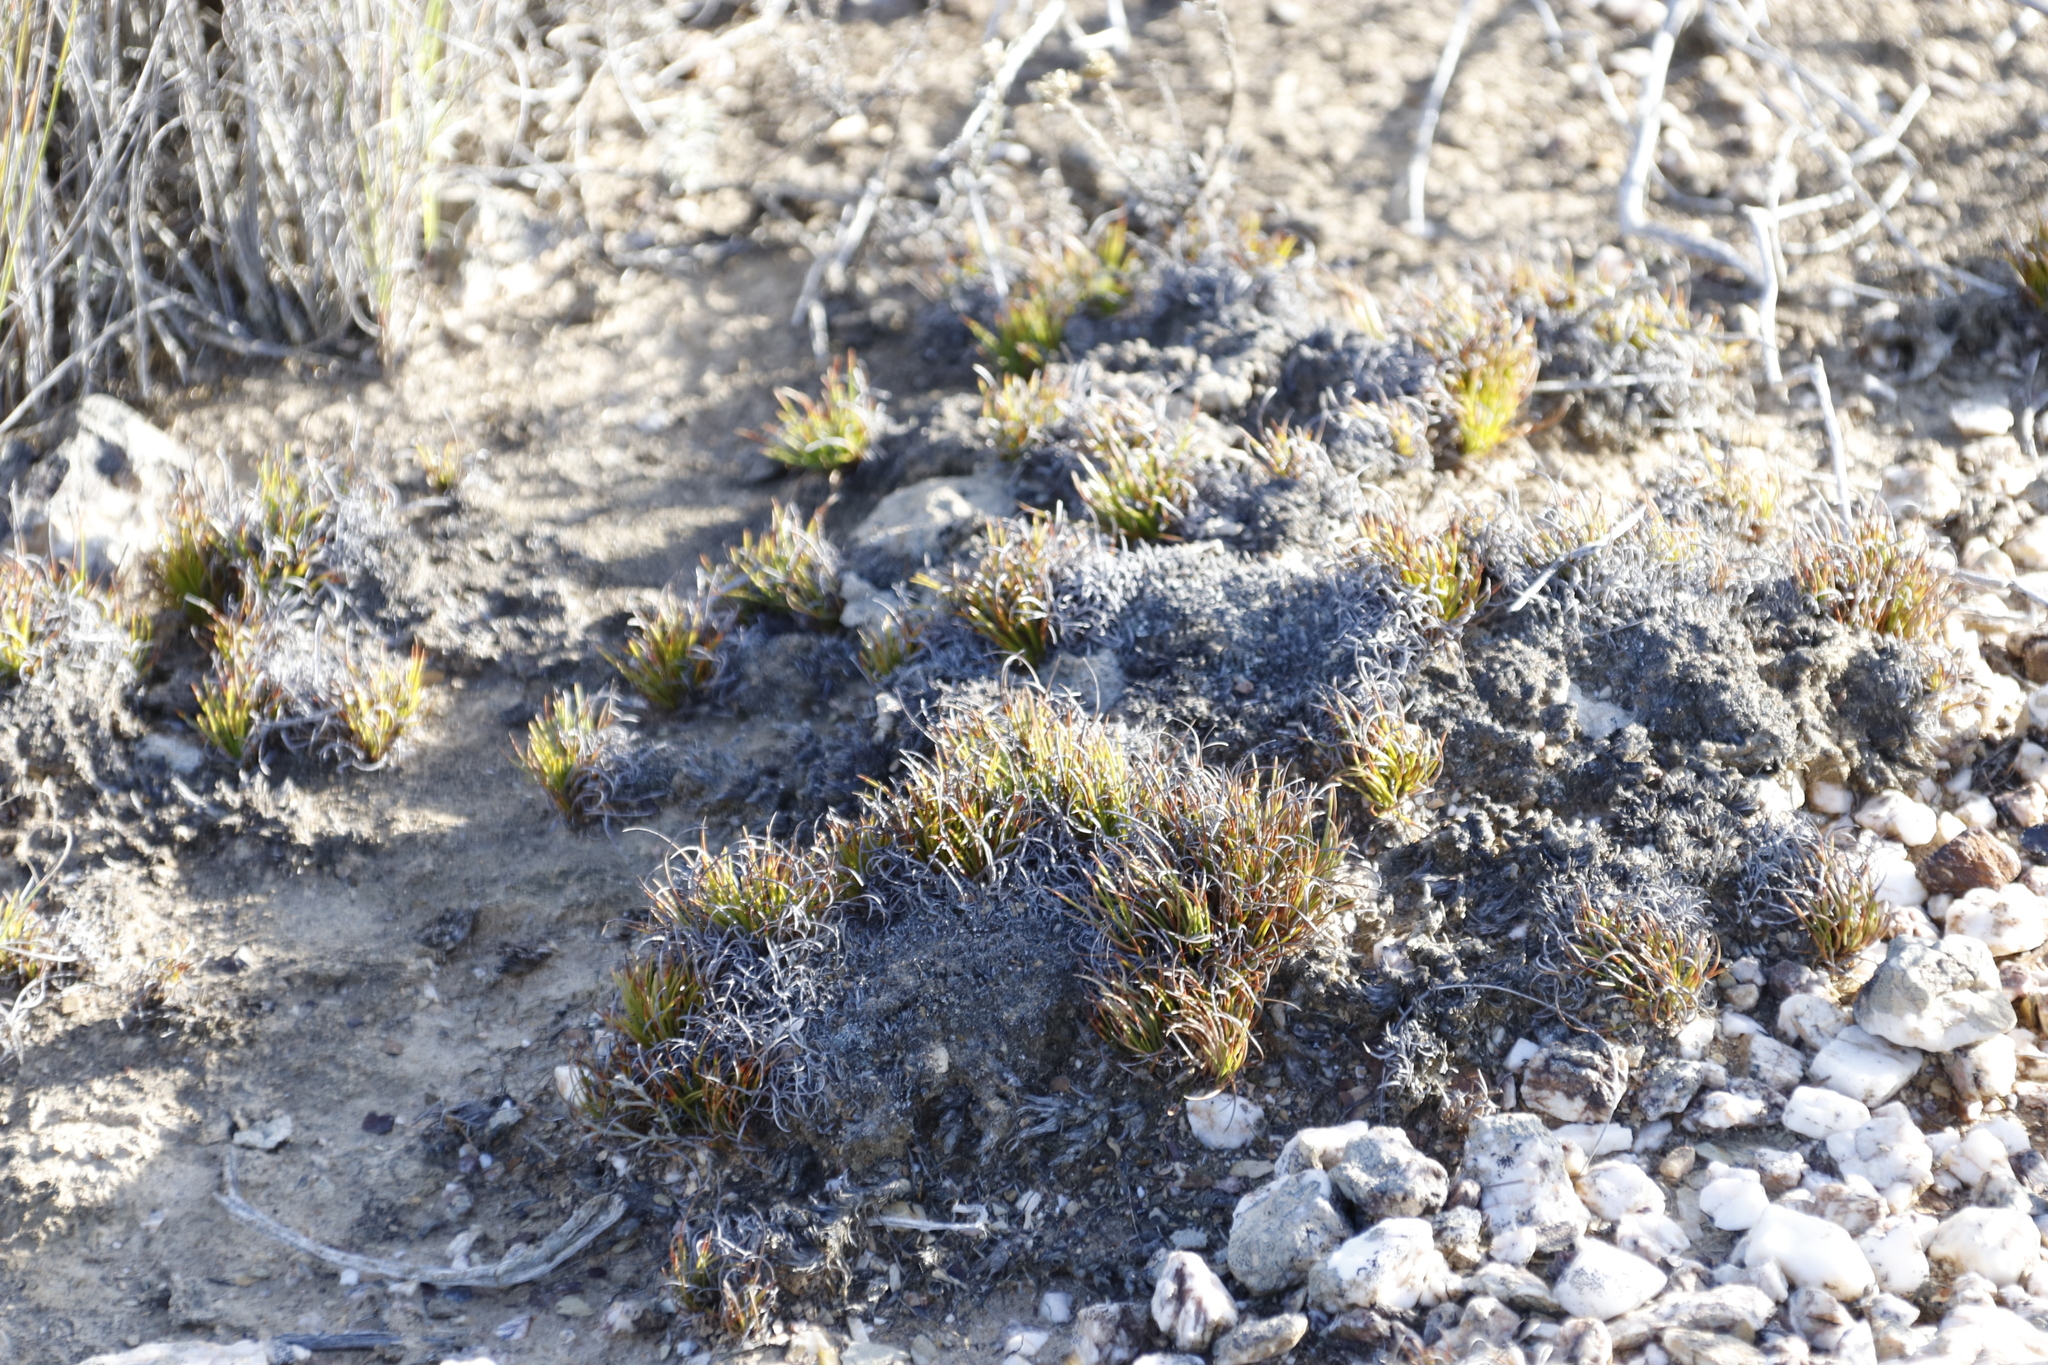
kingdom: Plantae
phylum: Tracheophyta
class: Liliopsida
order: Poales
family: Cyperaceae
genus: Ficinia
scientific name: Ficinia overbergensis
